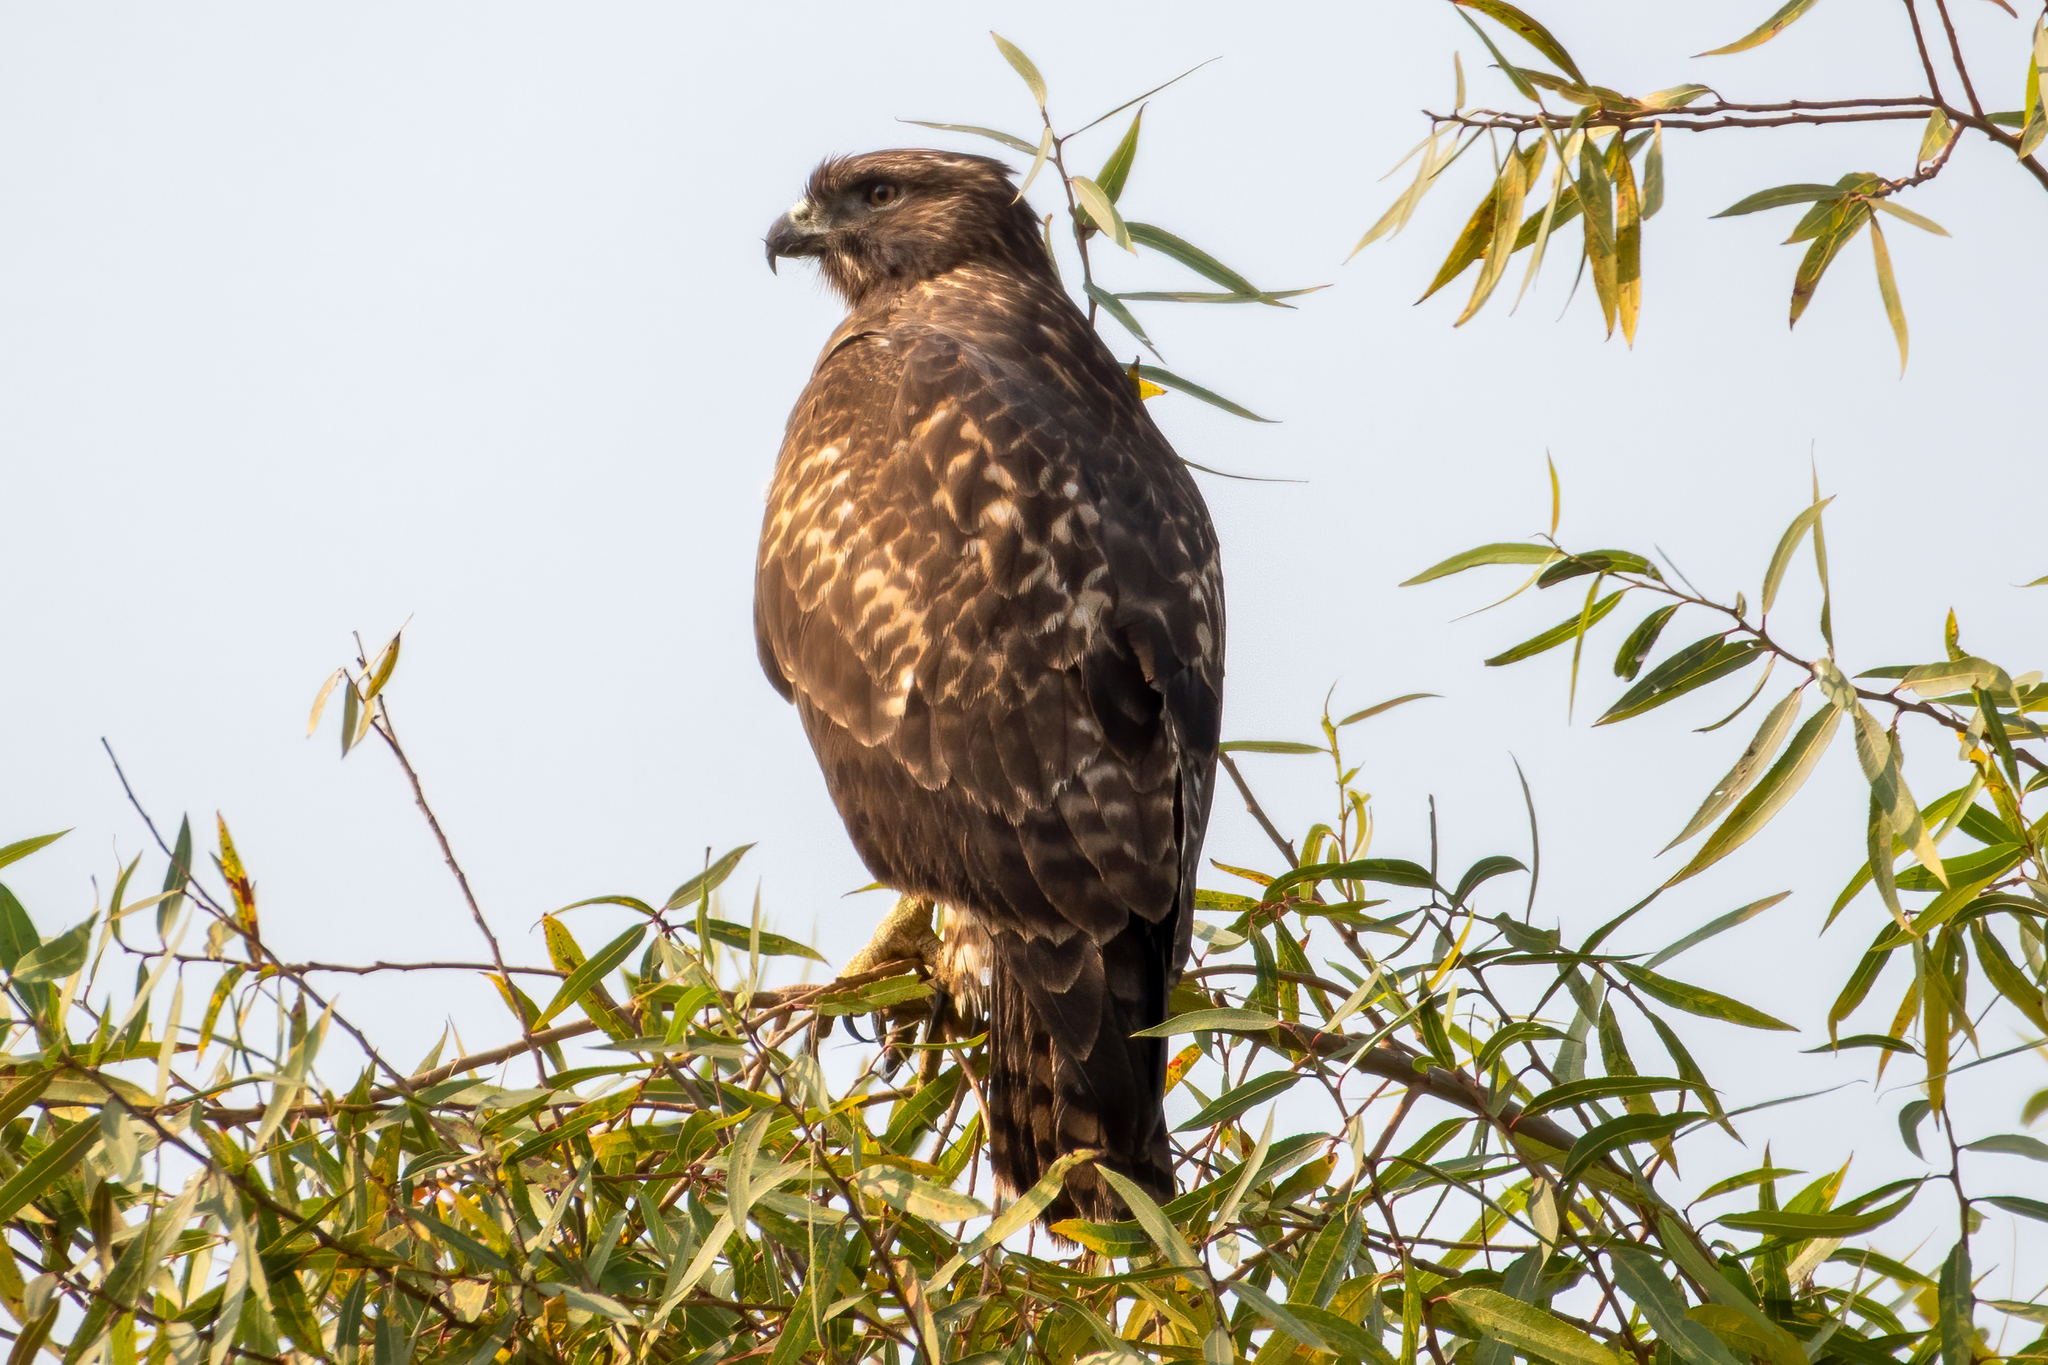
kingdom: Animalia
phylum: Chordata
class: Aves
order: Accipitriformes
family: Accipitridae
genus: Buteo
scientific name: Buteo jamaicensis
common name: Red-tailed hawk
